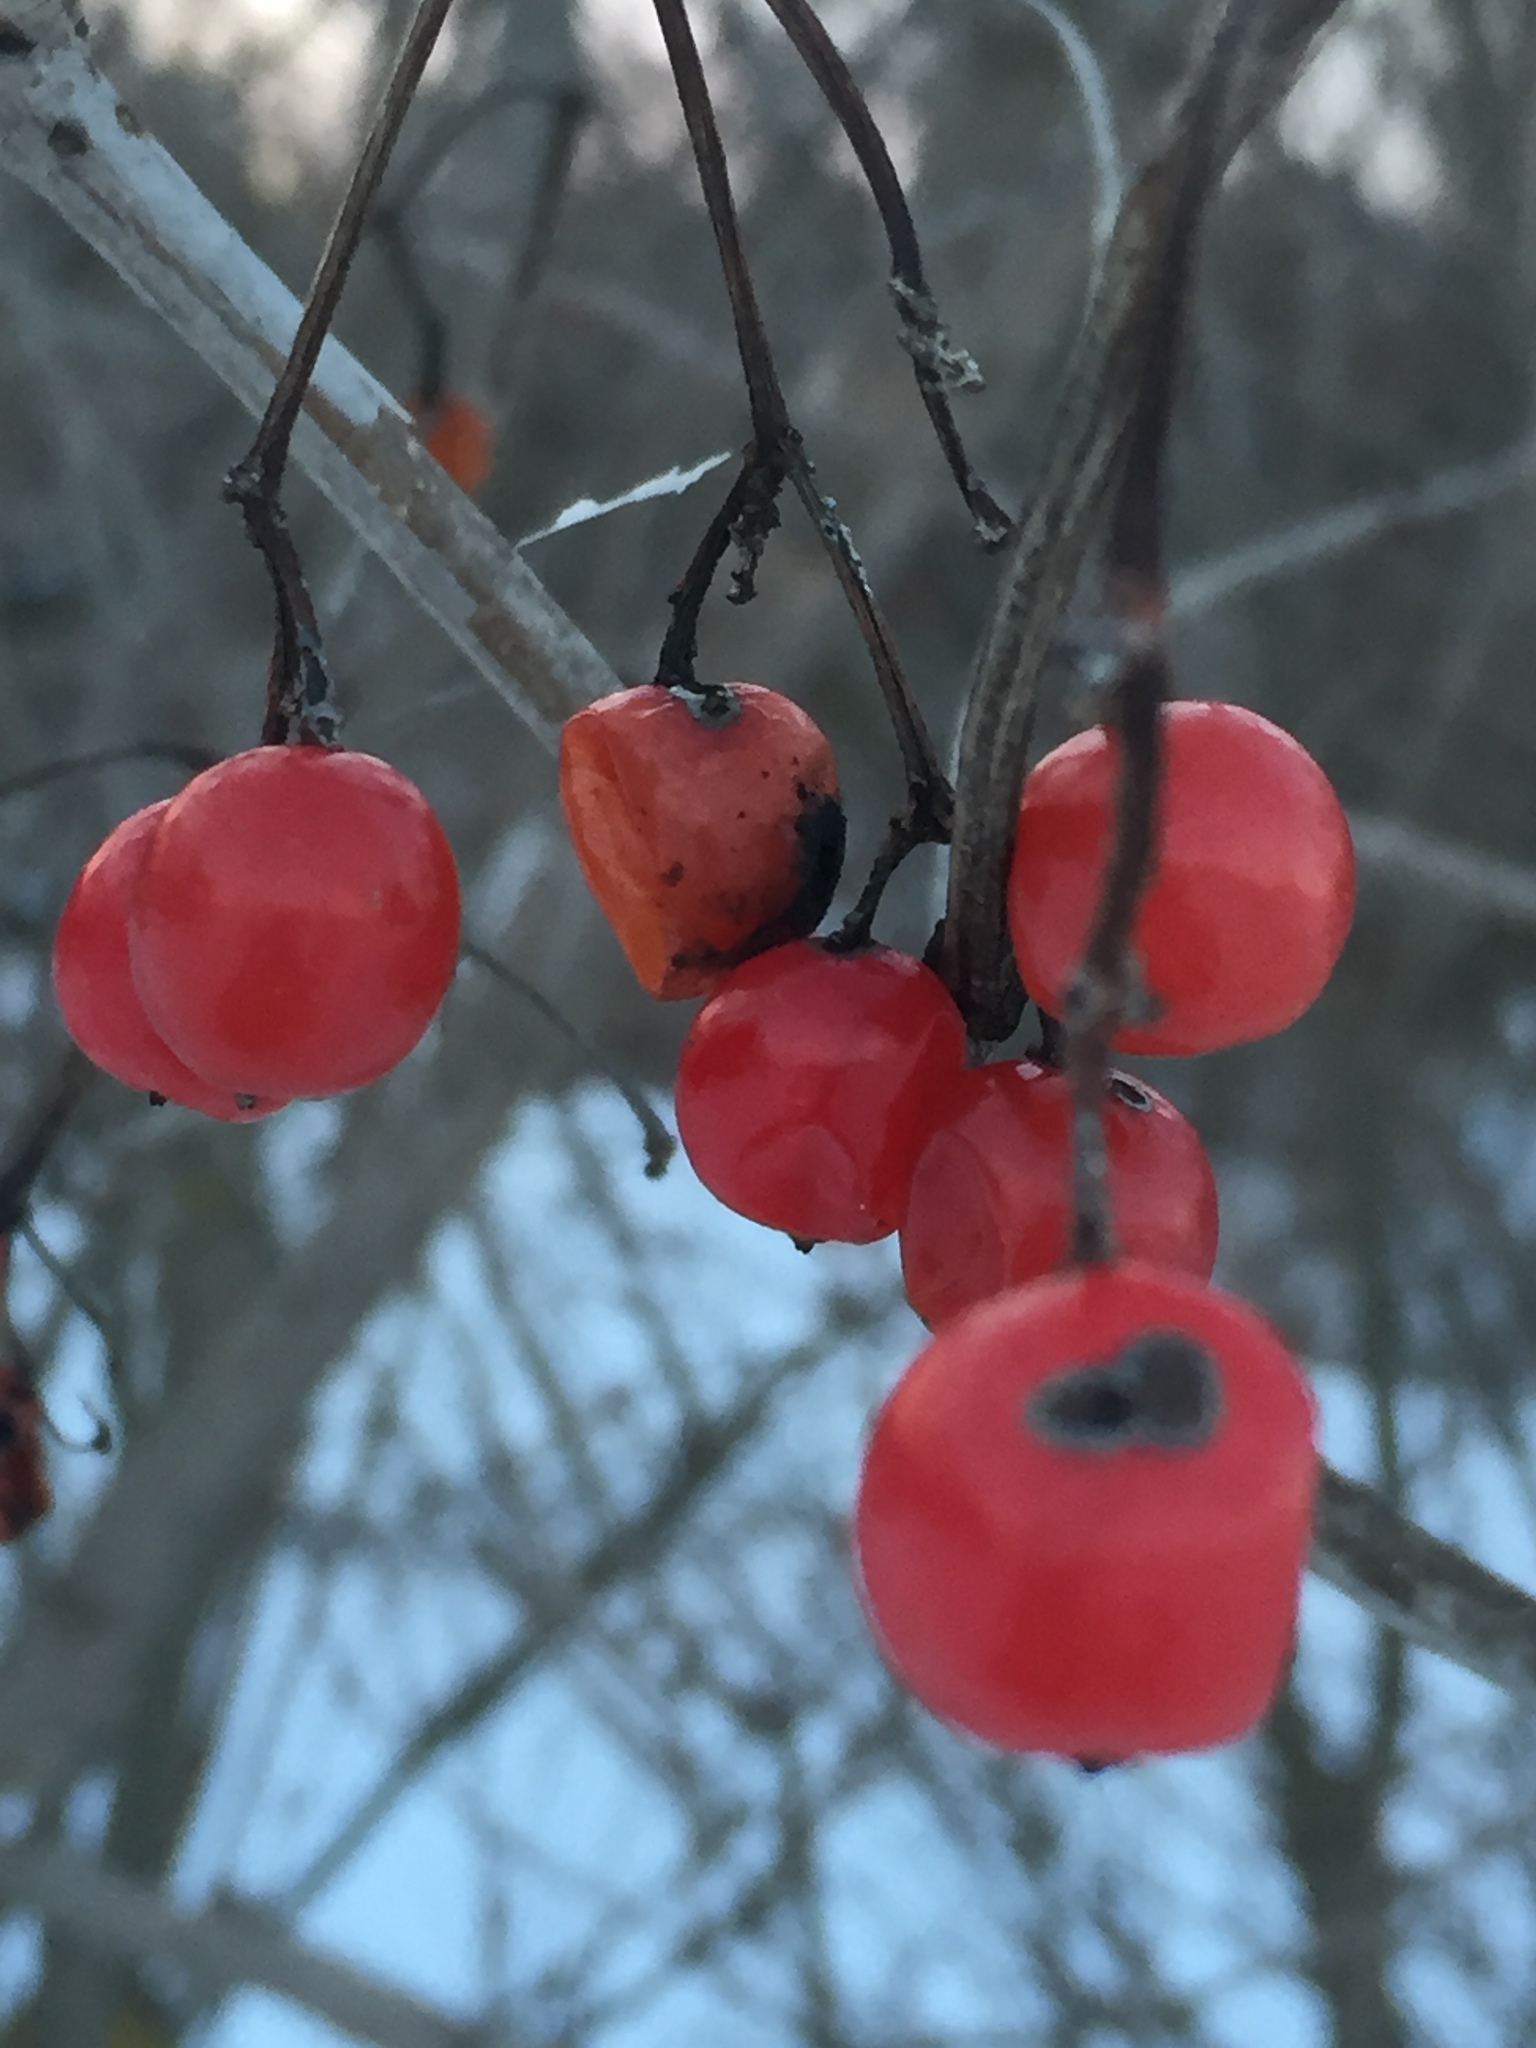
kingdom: Plantae
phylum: Tracheophyta
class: Magnoliopsida
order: Dipsacales
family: Viburnaceae
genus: Viburnum
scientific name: Viburnum opulus
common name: Guelder-rose
